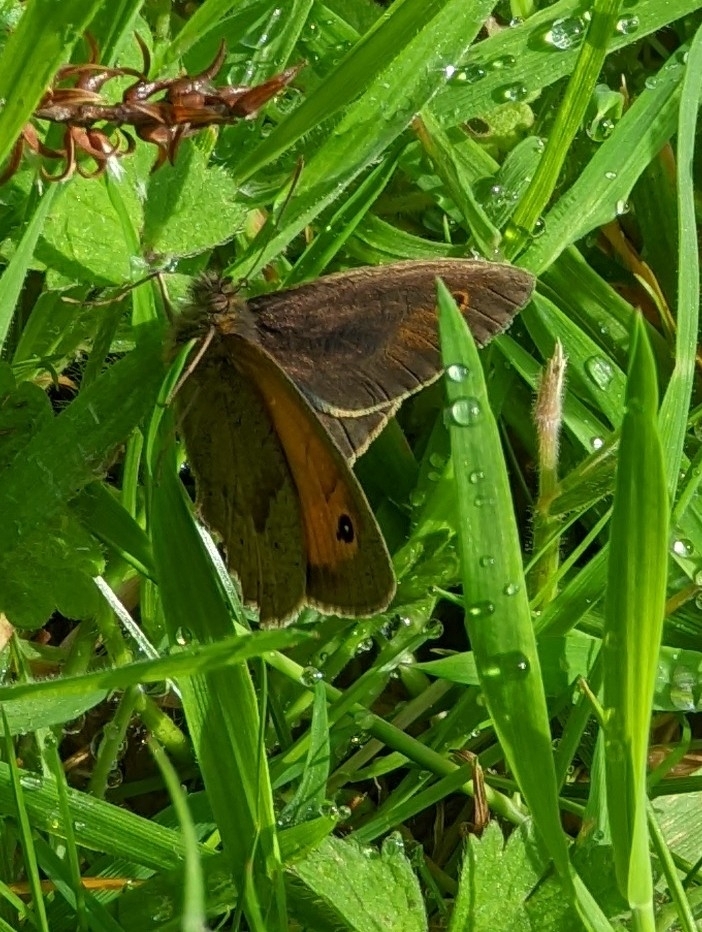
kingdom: Animalia
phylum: Arthropoda
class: Insecta
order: Lepidoptera
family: Nymphalidae
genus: Maniola
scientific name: Maniola jurtina
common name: Meadow brown
